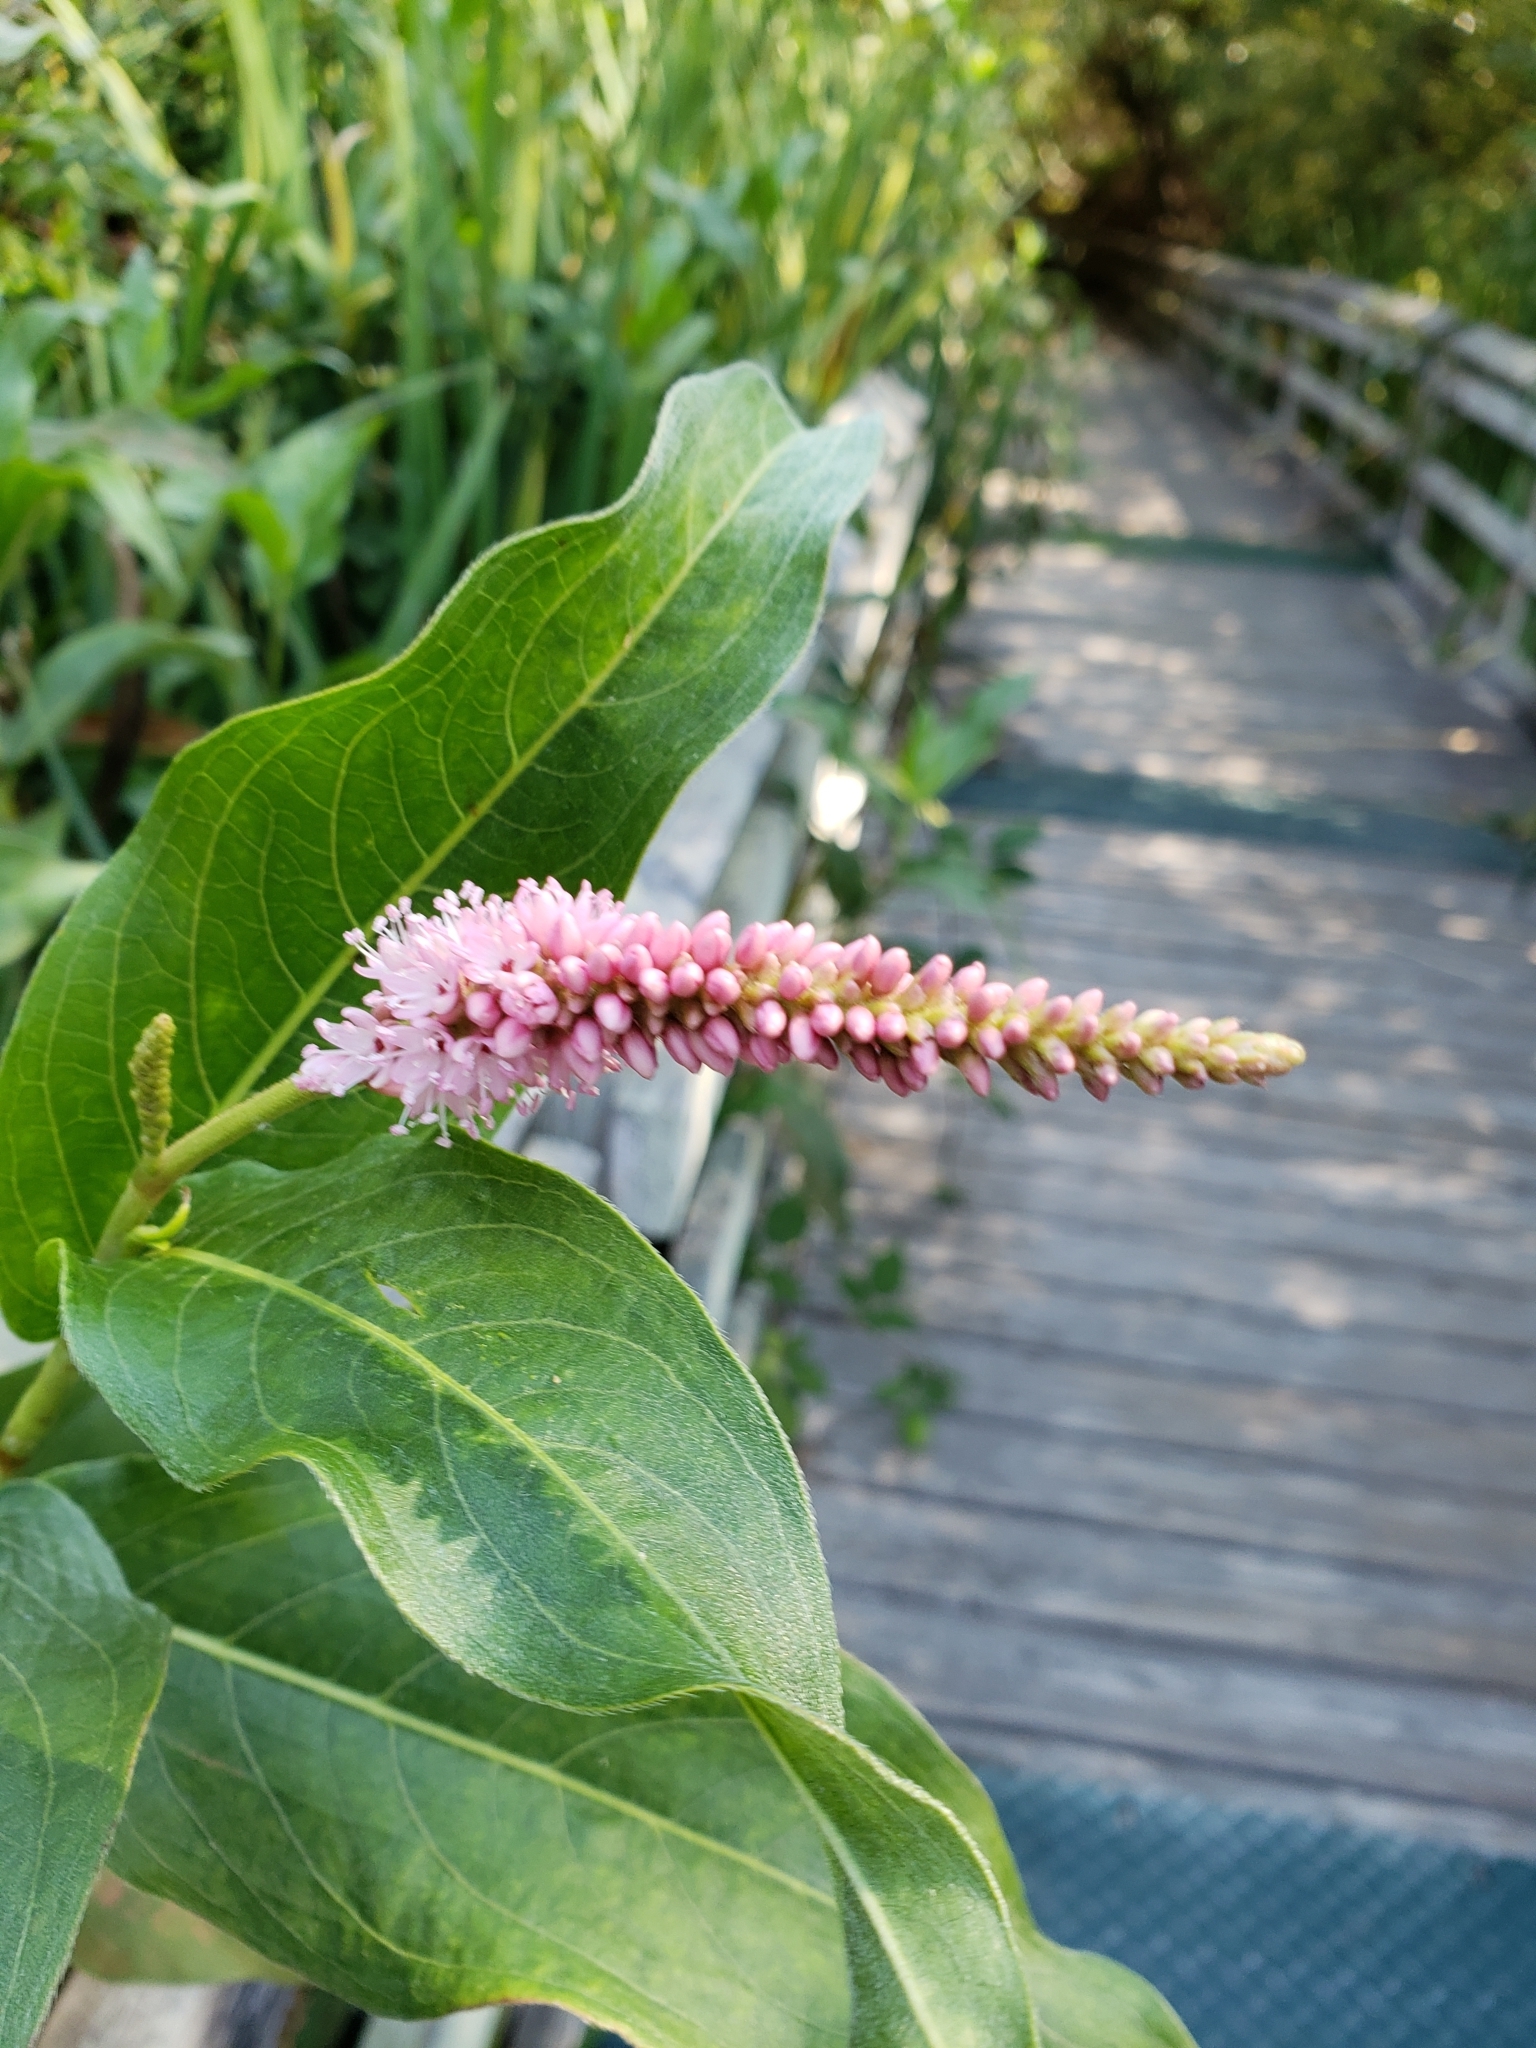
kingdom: Plantae
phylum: Tracheophyta
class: Magnoliopsida
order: Caryophyllales
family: Polygonaceae
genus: Persicaria
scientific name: Persicaria amphibia
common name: Amphibious bistort
